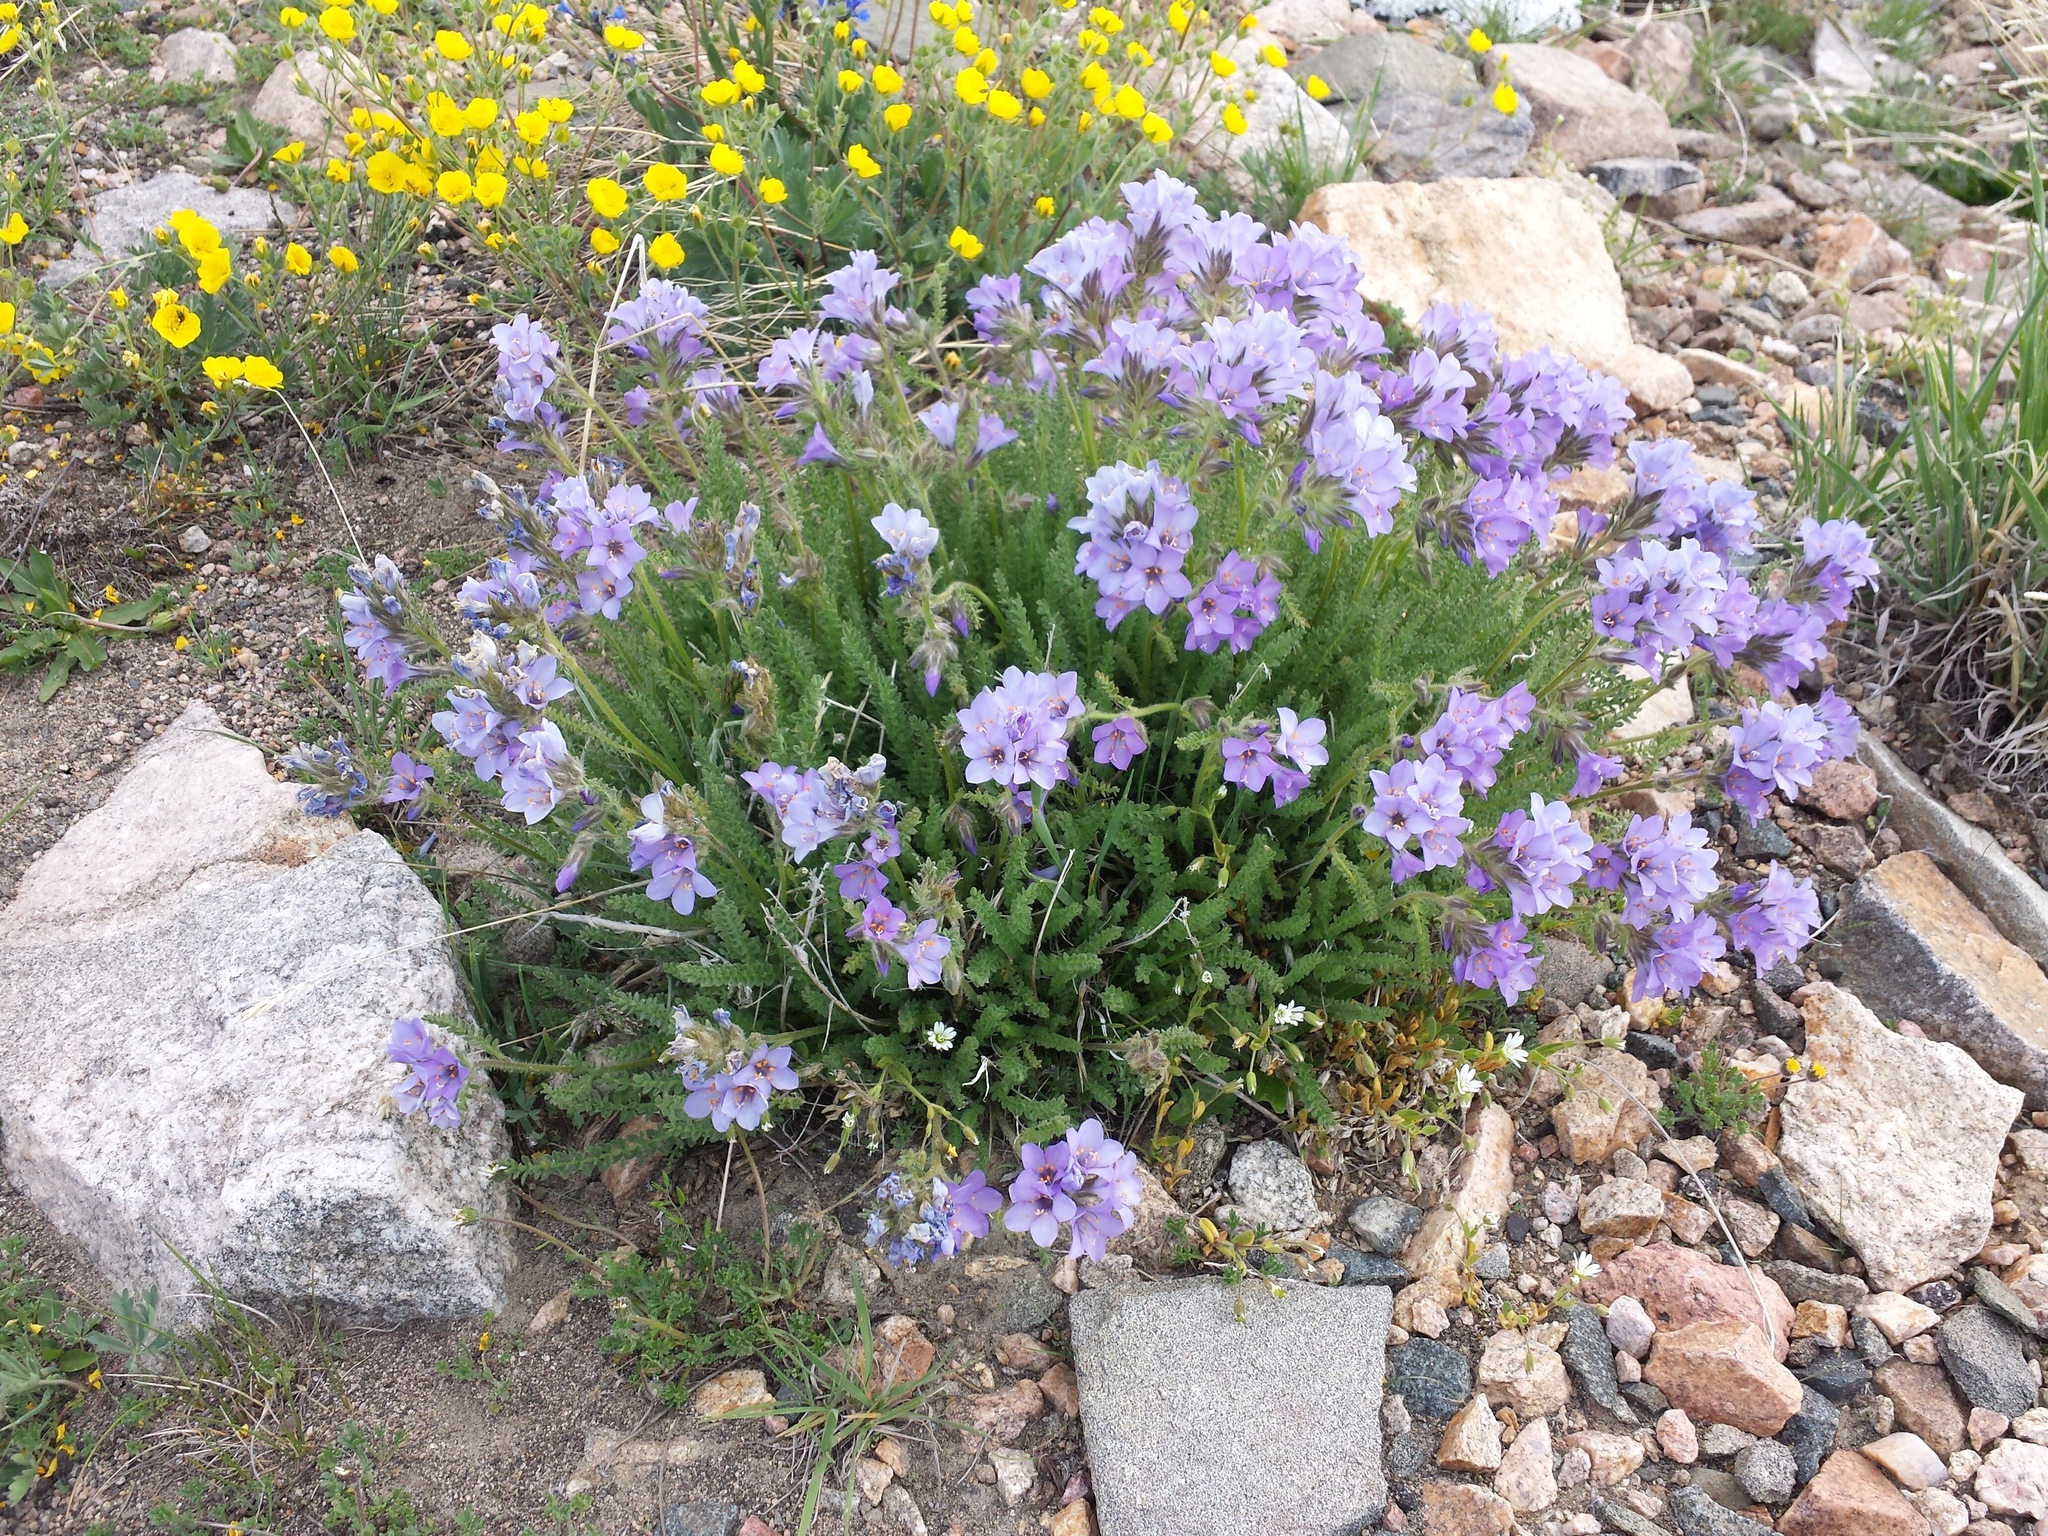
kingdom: Plantae
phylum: Tracheophyta
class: Magnoliopsida
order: Ericales
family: Polemoniaceae
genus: Polemonium
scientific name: Polemonium viscosum
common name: Skunk jacob's-ladder
